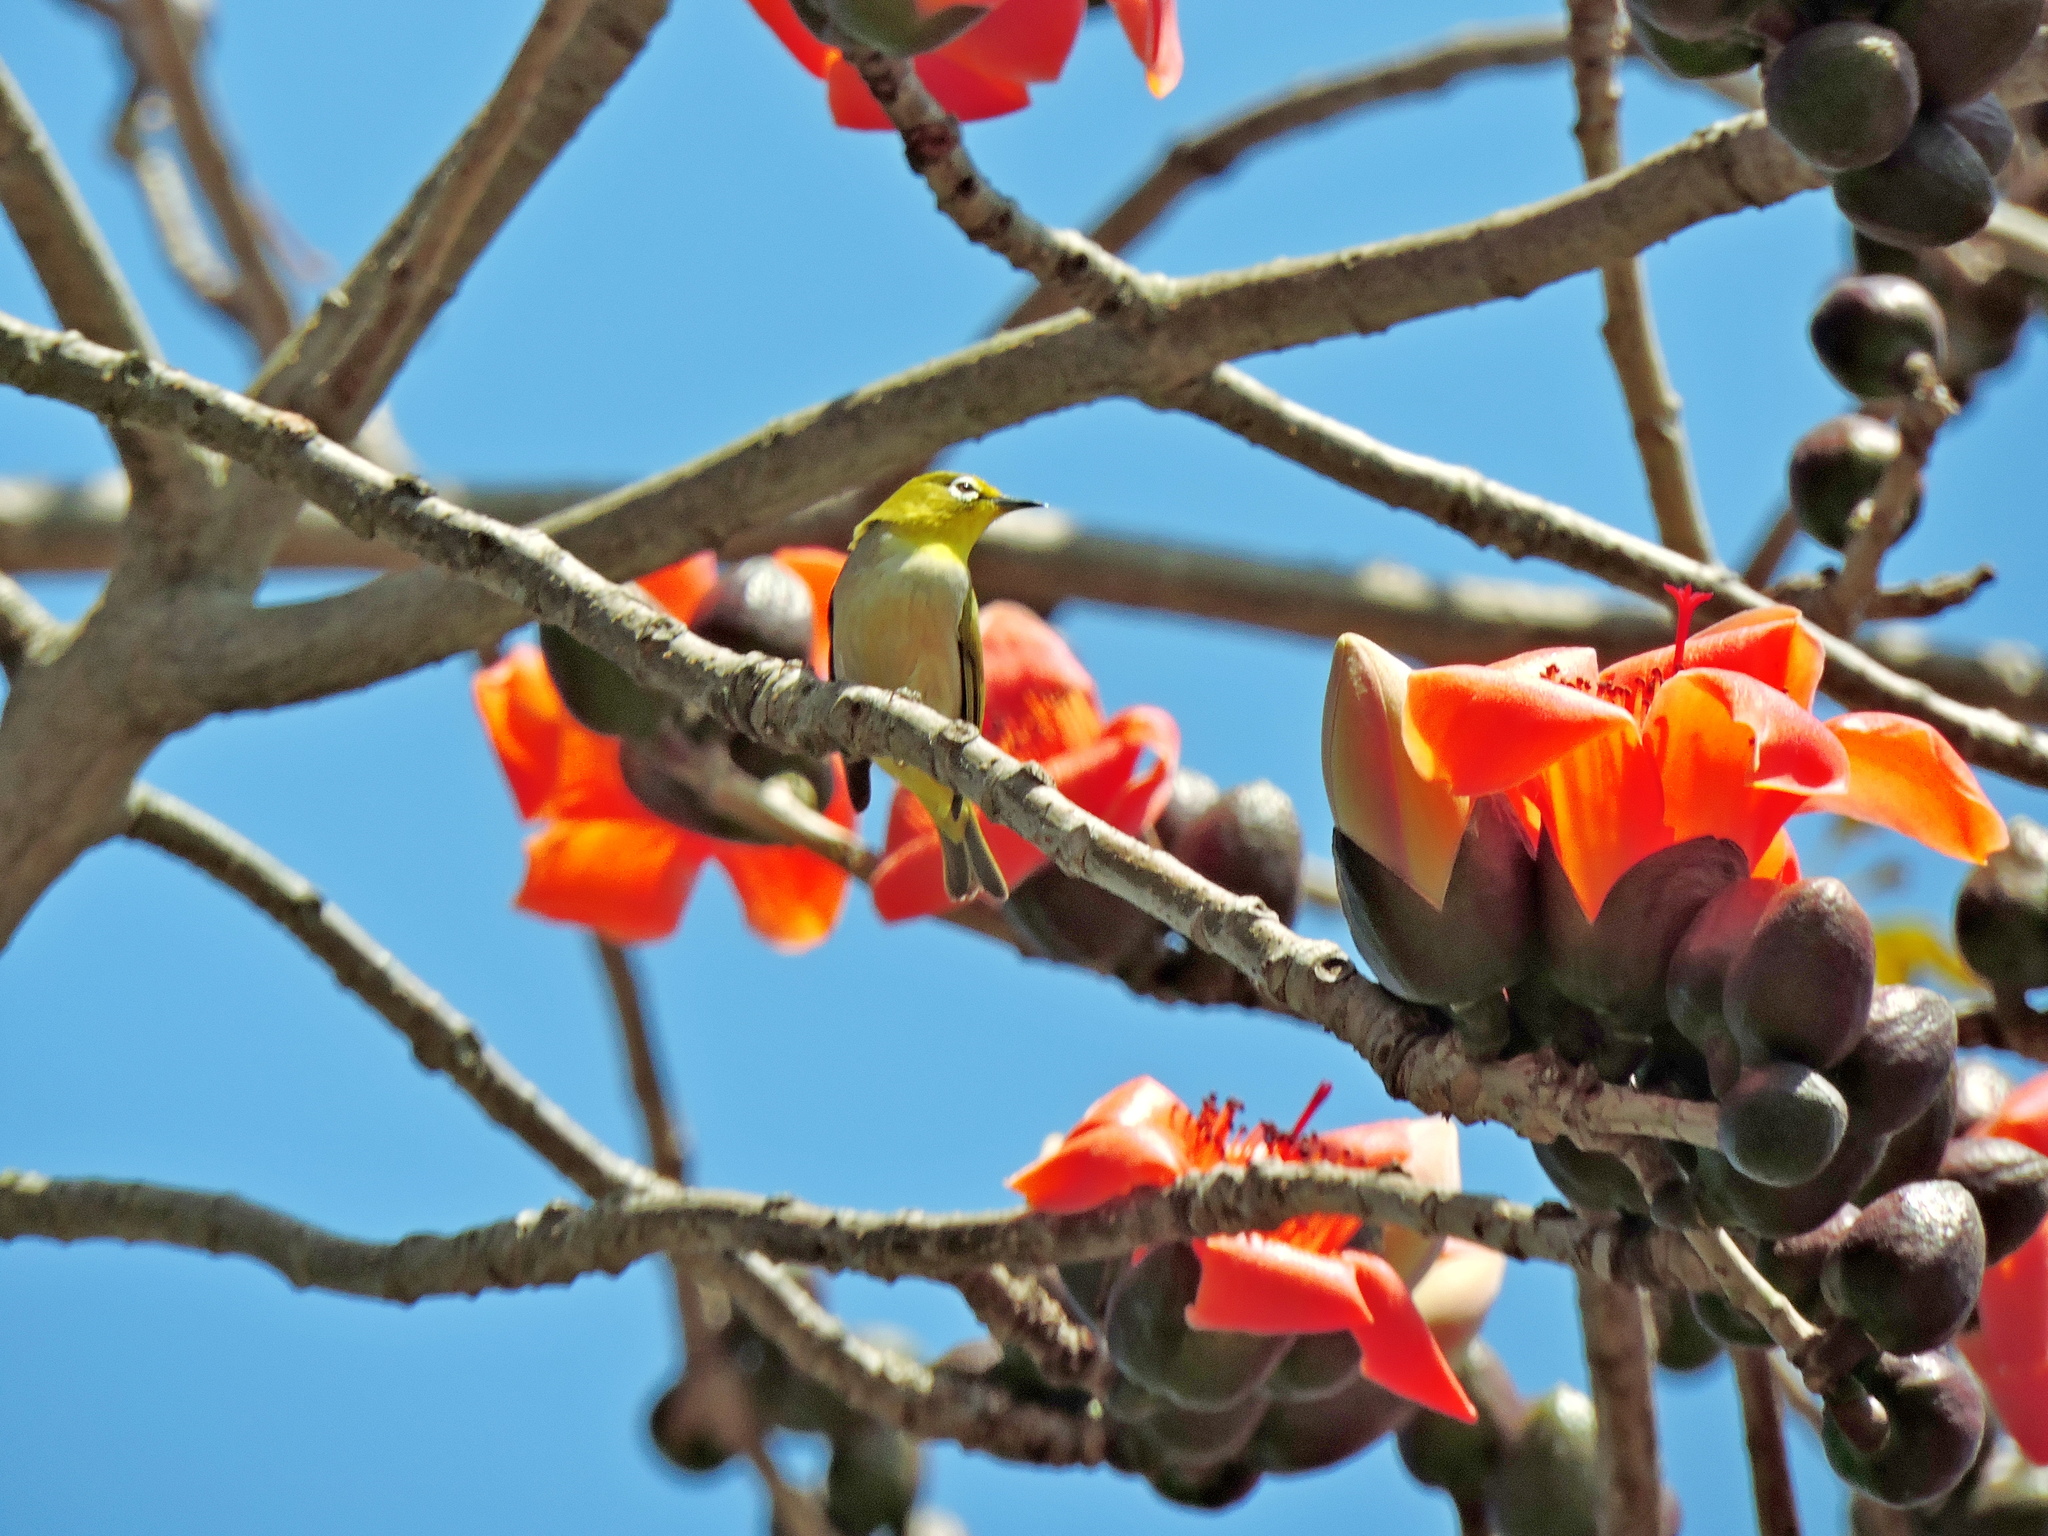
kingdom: Animalia
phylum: Chordata
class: Aves
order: Passeriformes
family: Zosteropidae
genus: Zosterops
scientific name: Zosterops simplex
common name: Swinhoe's white-eye
